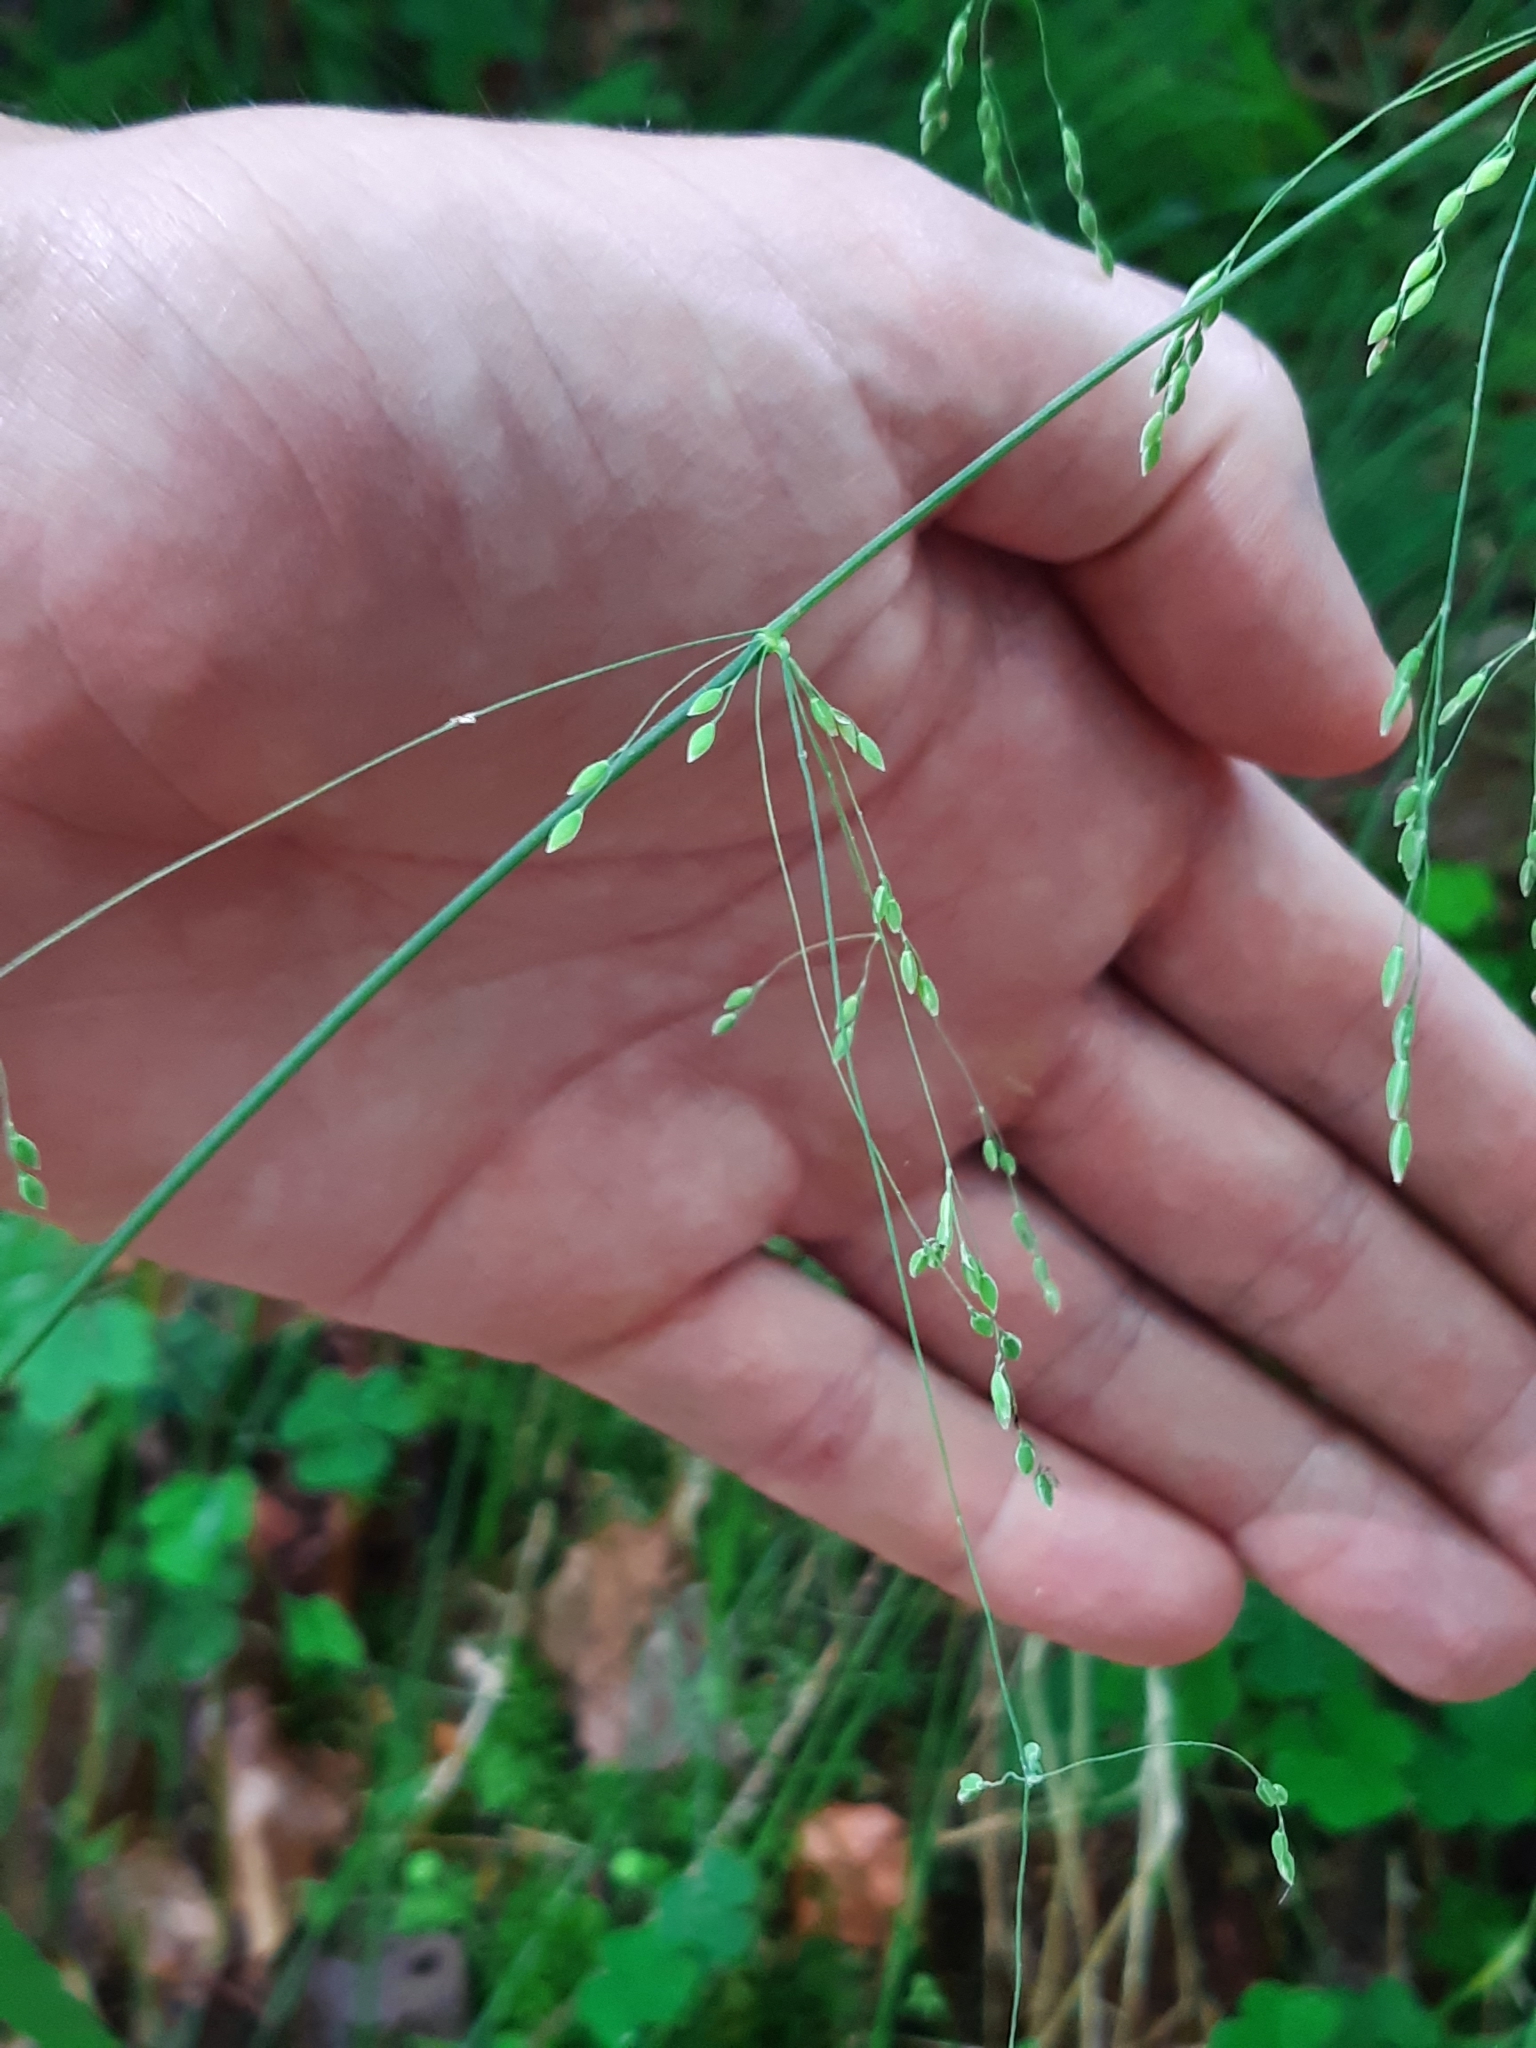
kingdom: Plantae
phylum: Tracheophyta
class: Liliopsida
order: Poales
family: Poaceae
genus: Milium
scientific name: Milium effusum
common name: Wood millet
